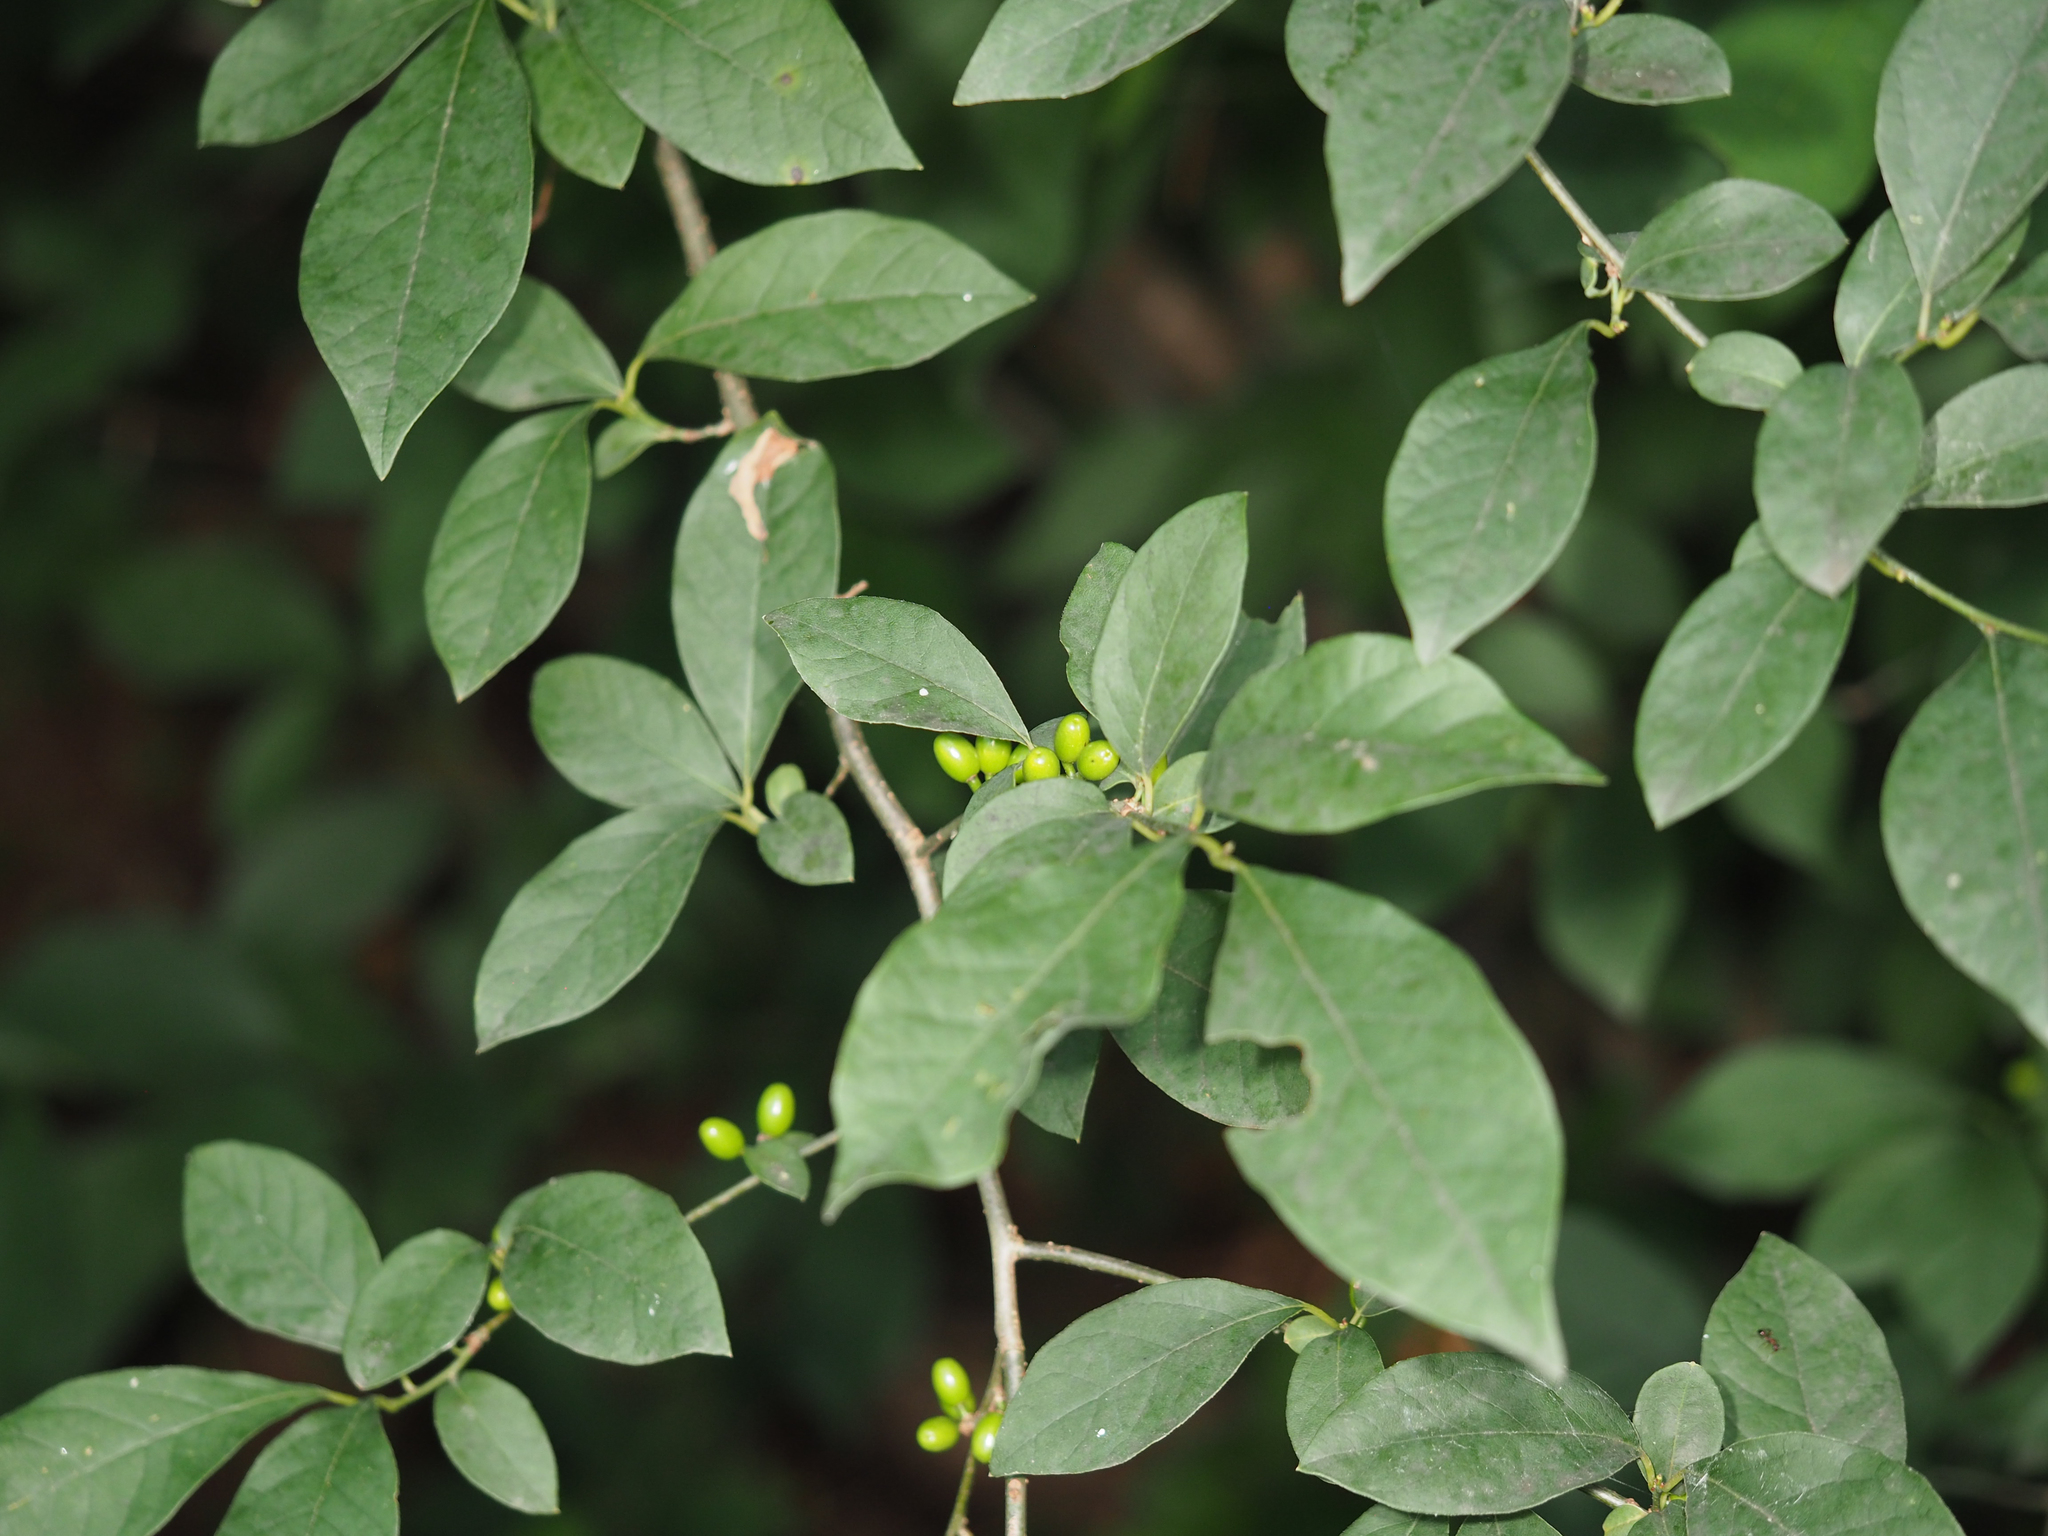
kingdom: Plantae
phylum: Tracheophyta
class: Magnoliopsida
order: Laurales
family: Lauraceae
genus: Lindera
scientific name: Lindera benzoin
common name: Spicebush
